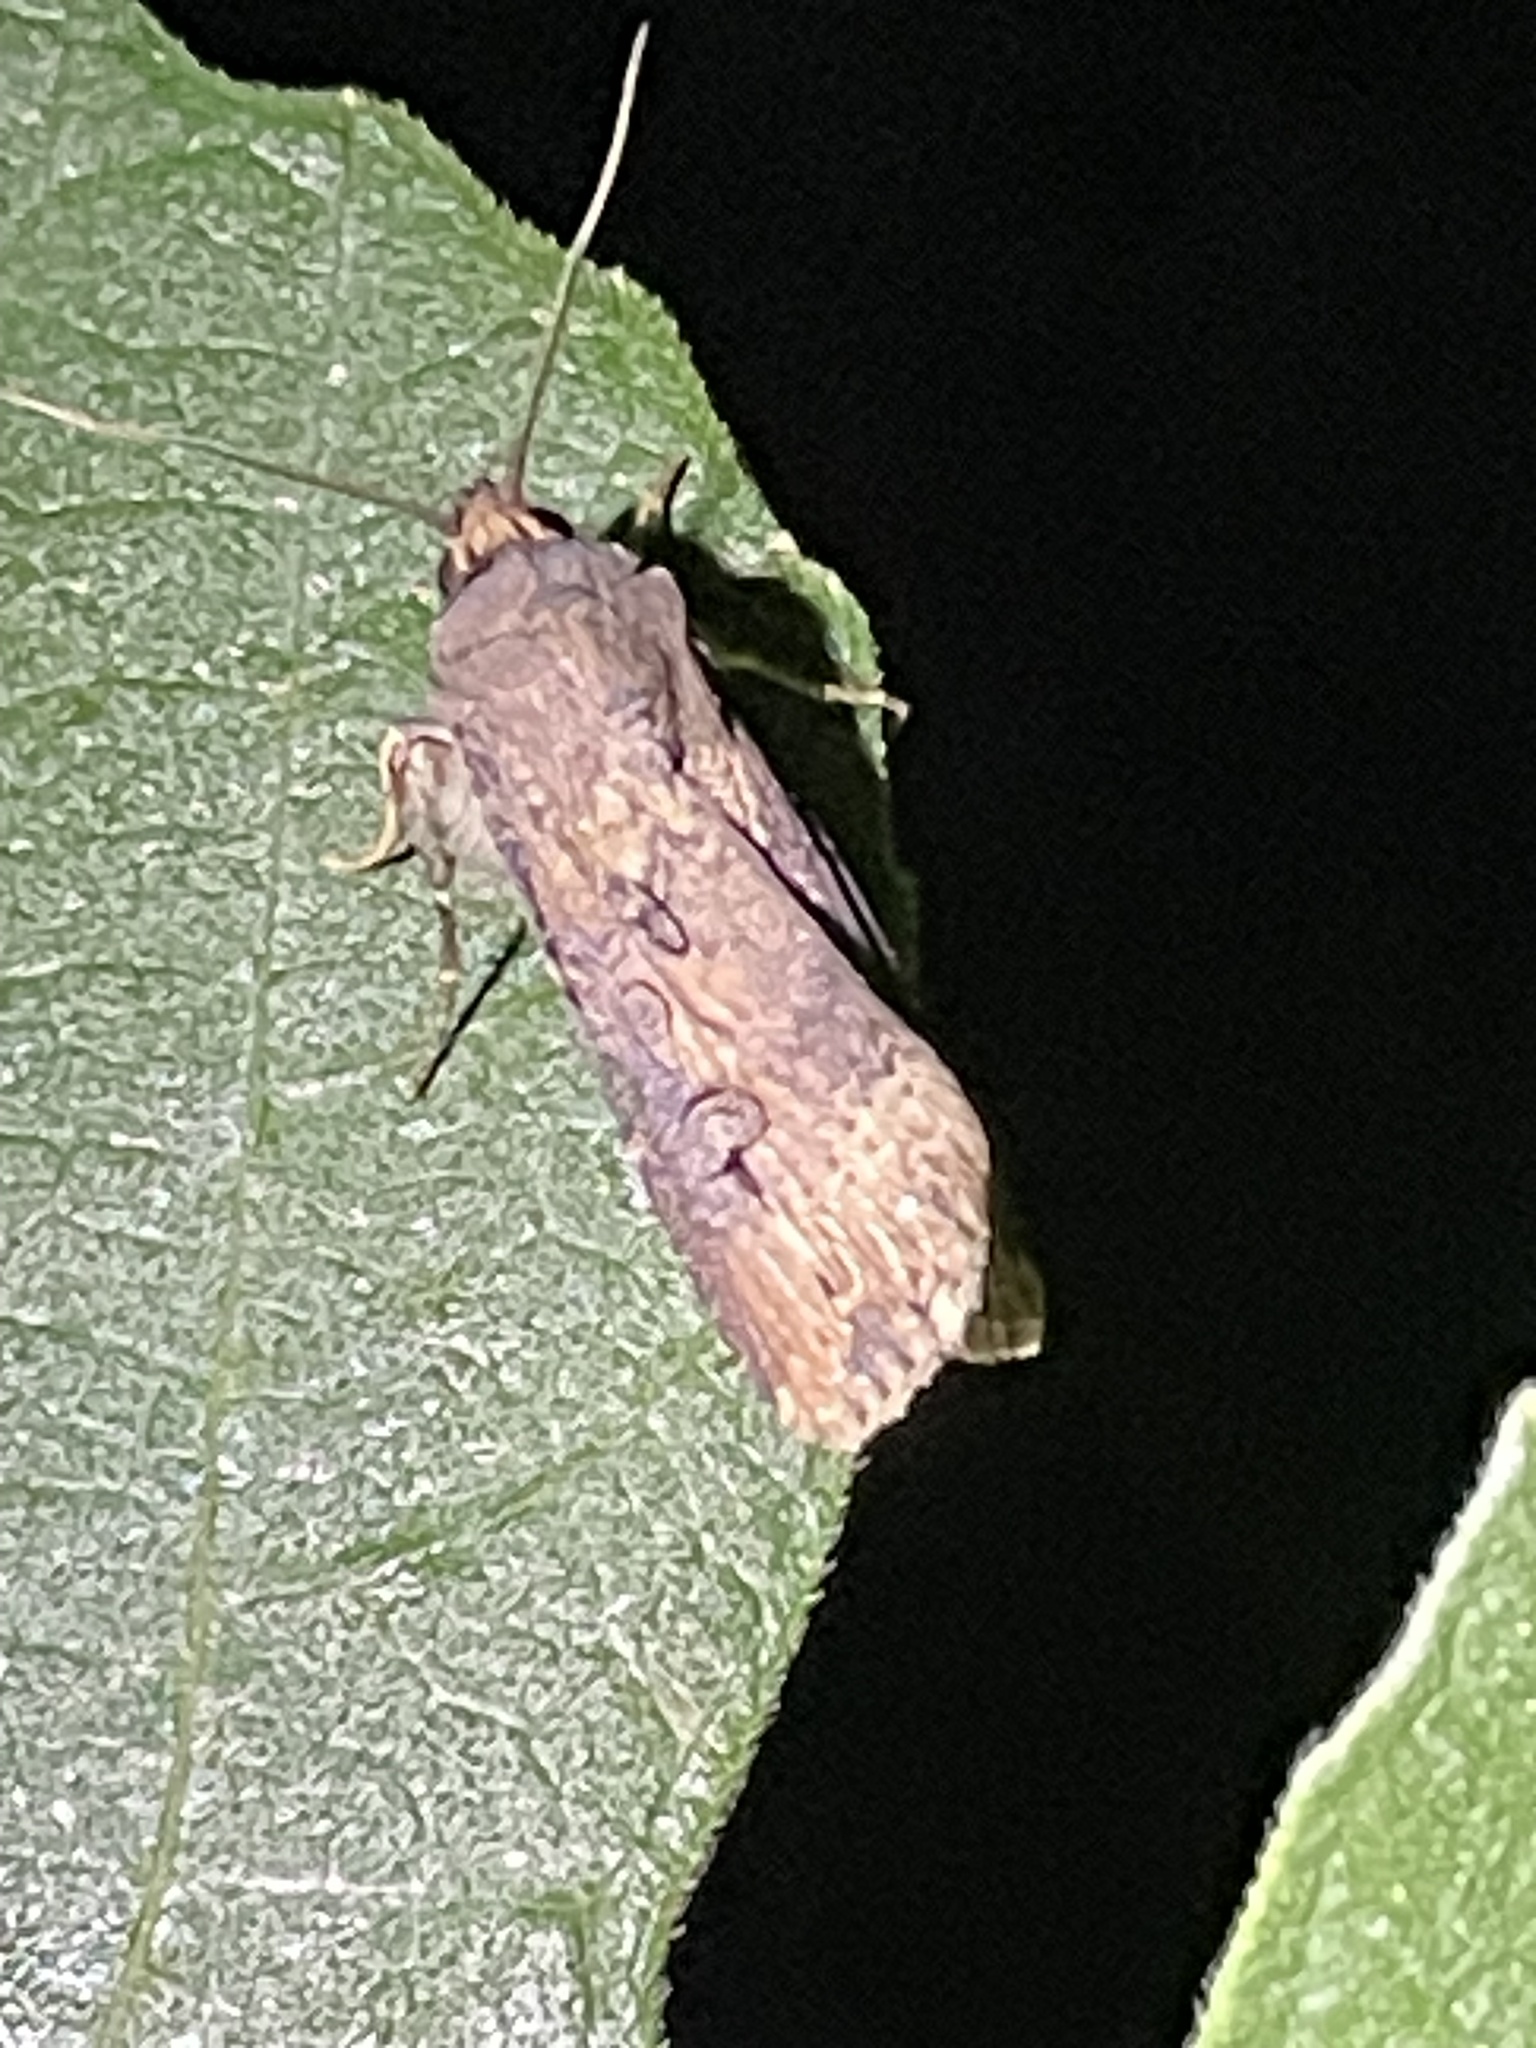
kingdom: Animalia
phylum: Arthropoda
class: Insecta
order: Lepidoptera
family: Noctuidae
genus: Agrotis
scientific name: Agrotis ipsilon
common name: Dark sword-grass
